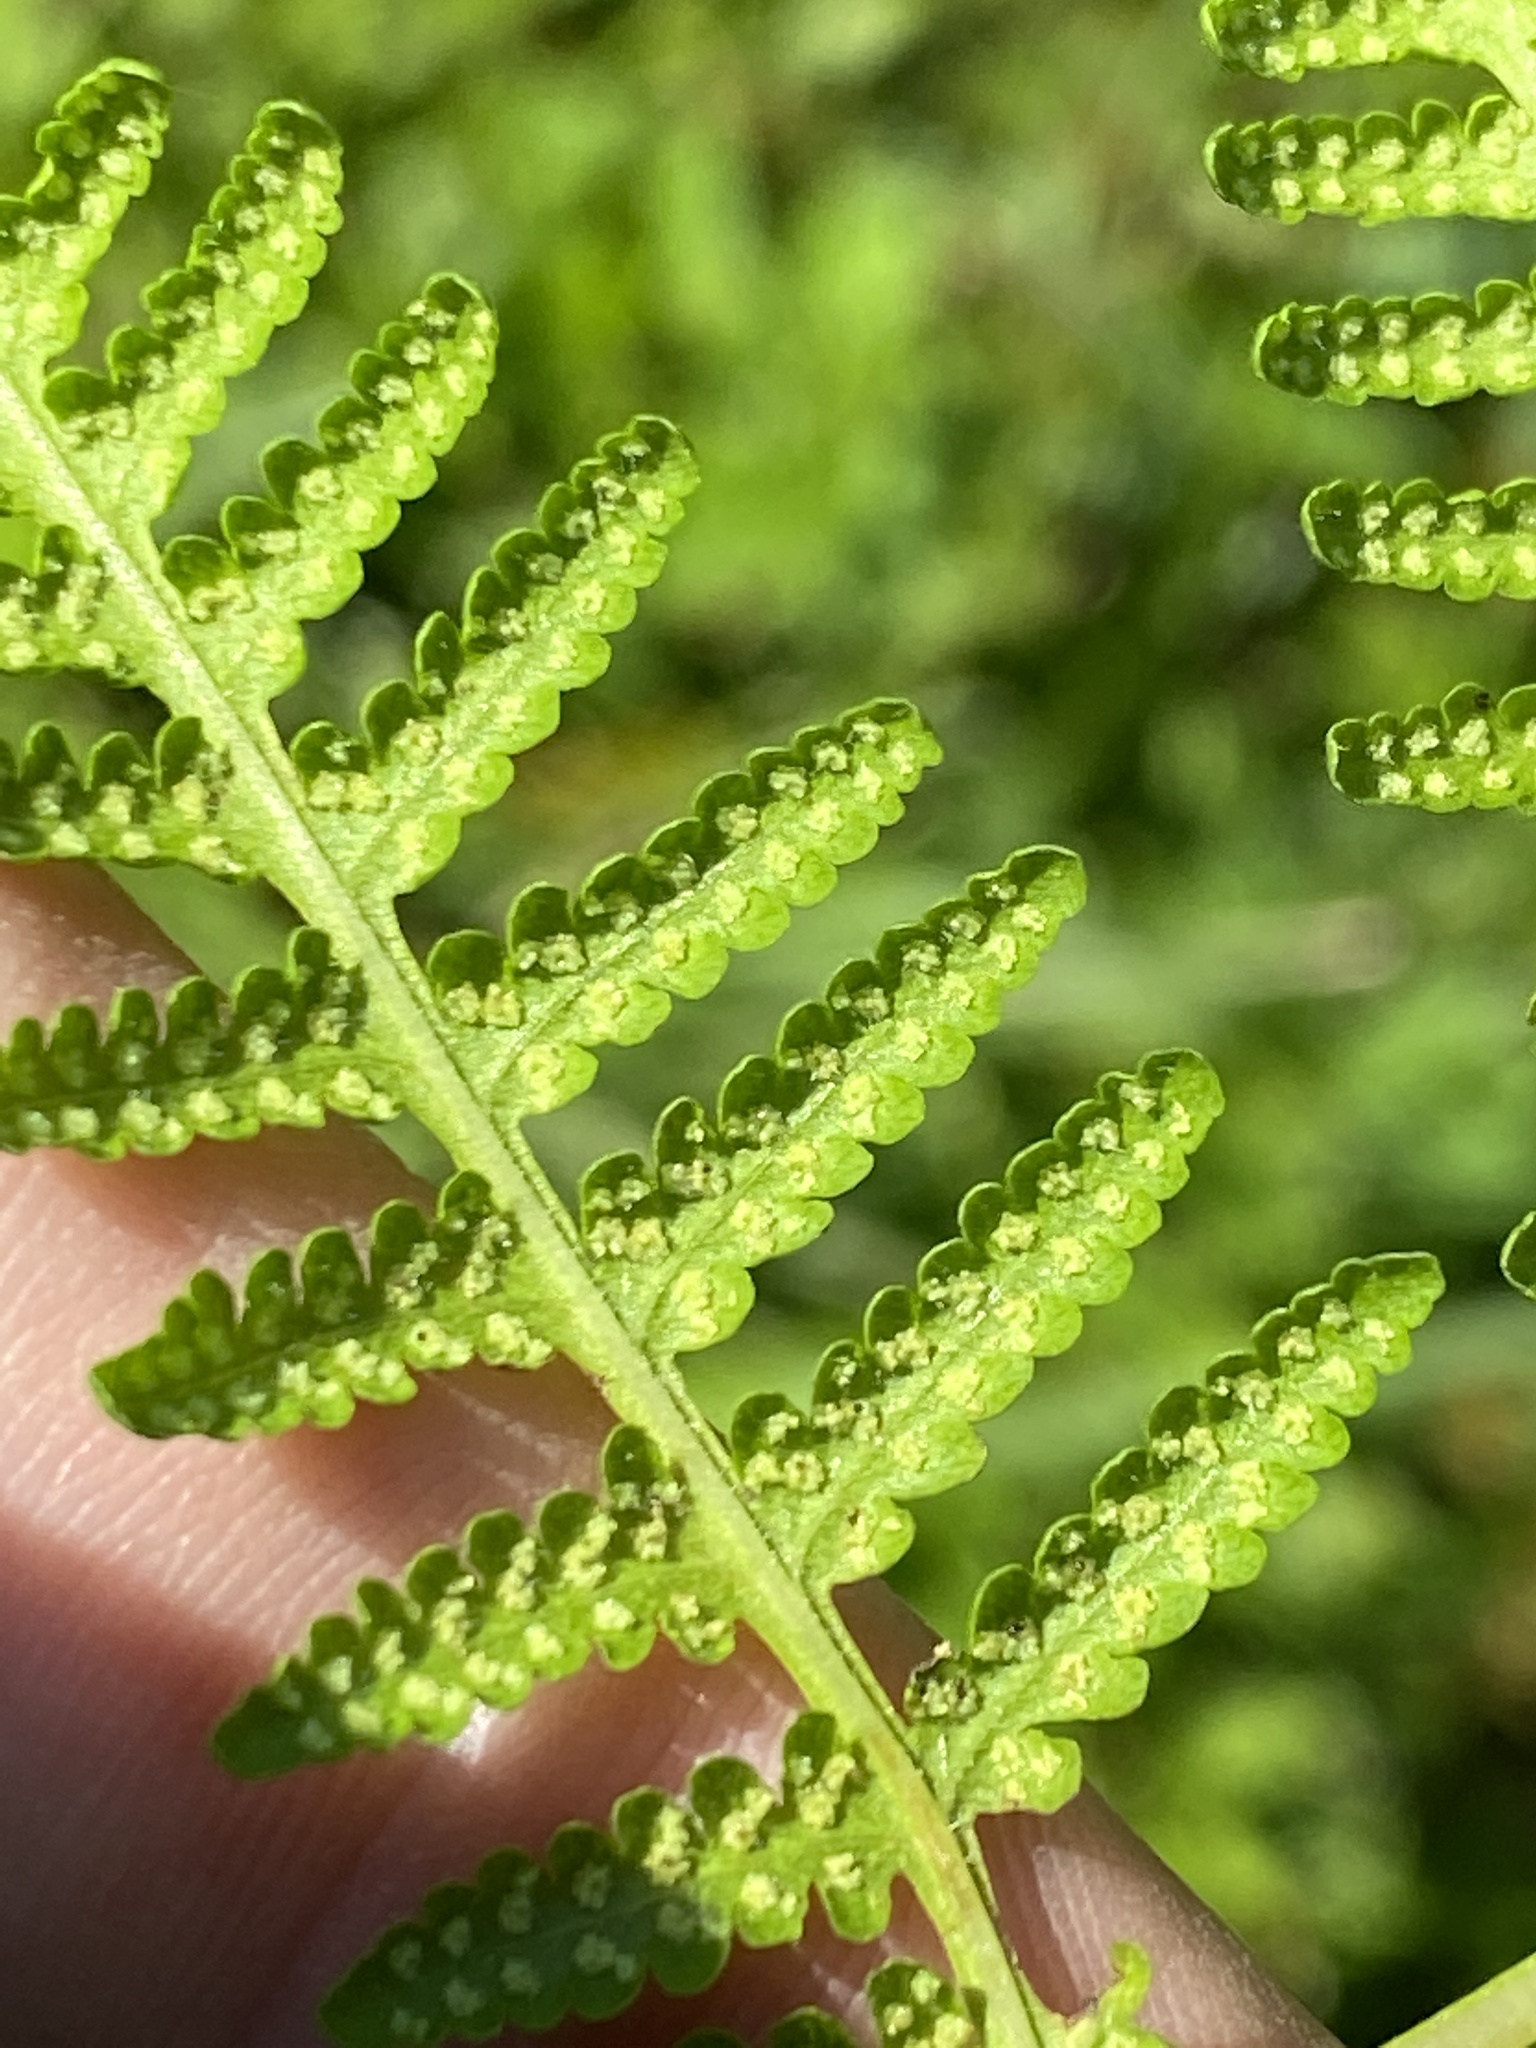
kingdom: Plantae
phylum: Tracheophyta
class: Polypodiopsida
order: Polypodiales
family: Thelypteridaceae
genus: Macrothelypteris
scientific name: Macrothelypteris torresiana
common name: Swordfern
